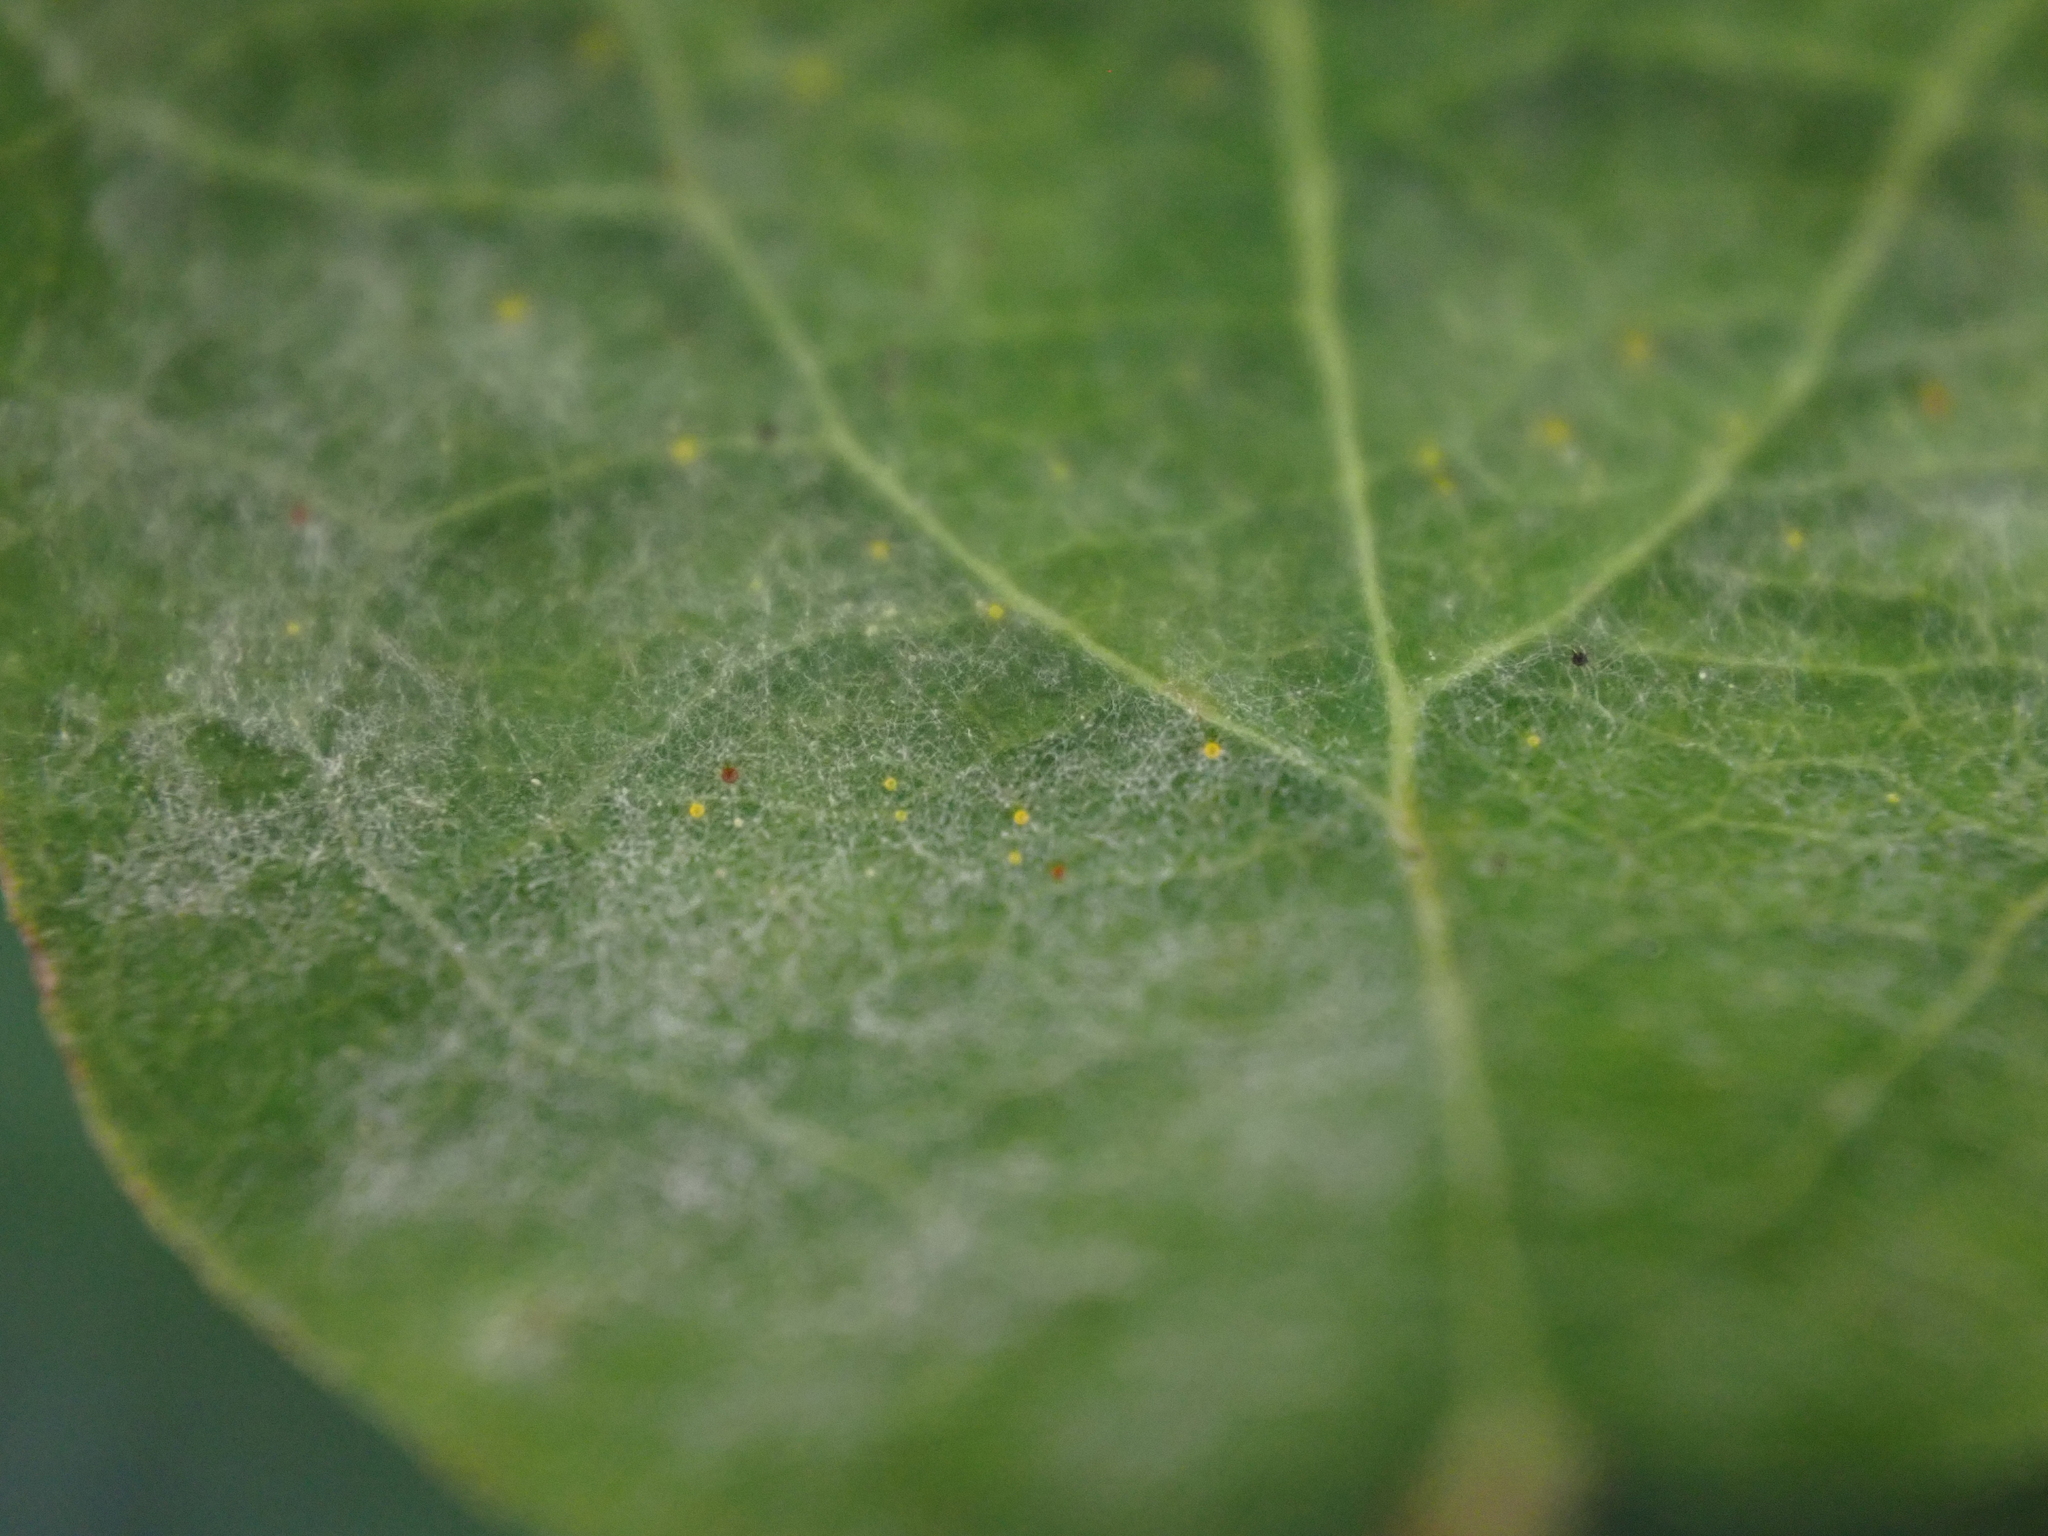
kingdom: Fungi
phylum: Ascomycota
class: Leotiomycetes
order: Helotiales
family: Erysiphaceae
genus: Erysiphe
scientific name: Erysiphe symphoricarpi
